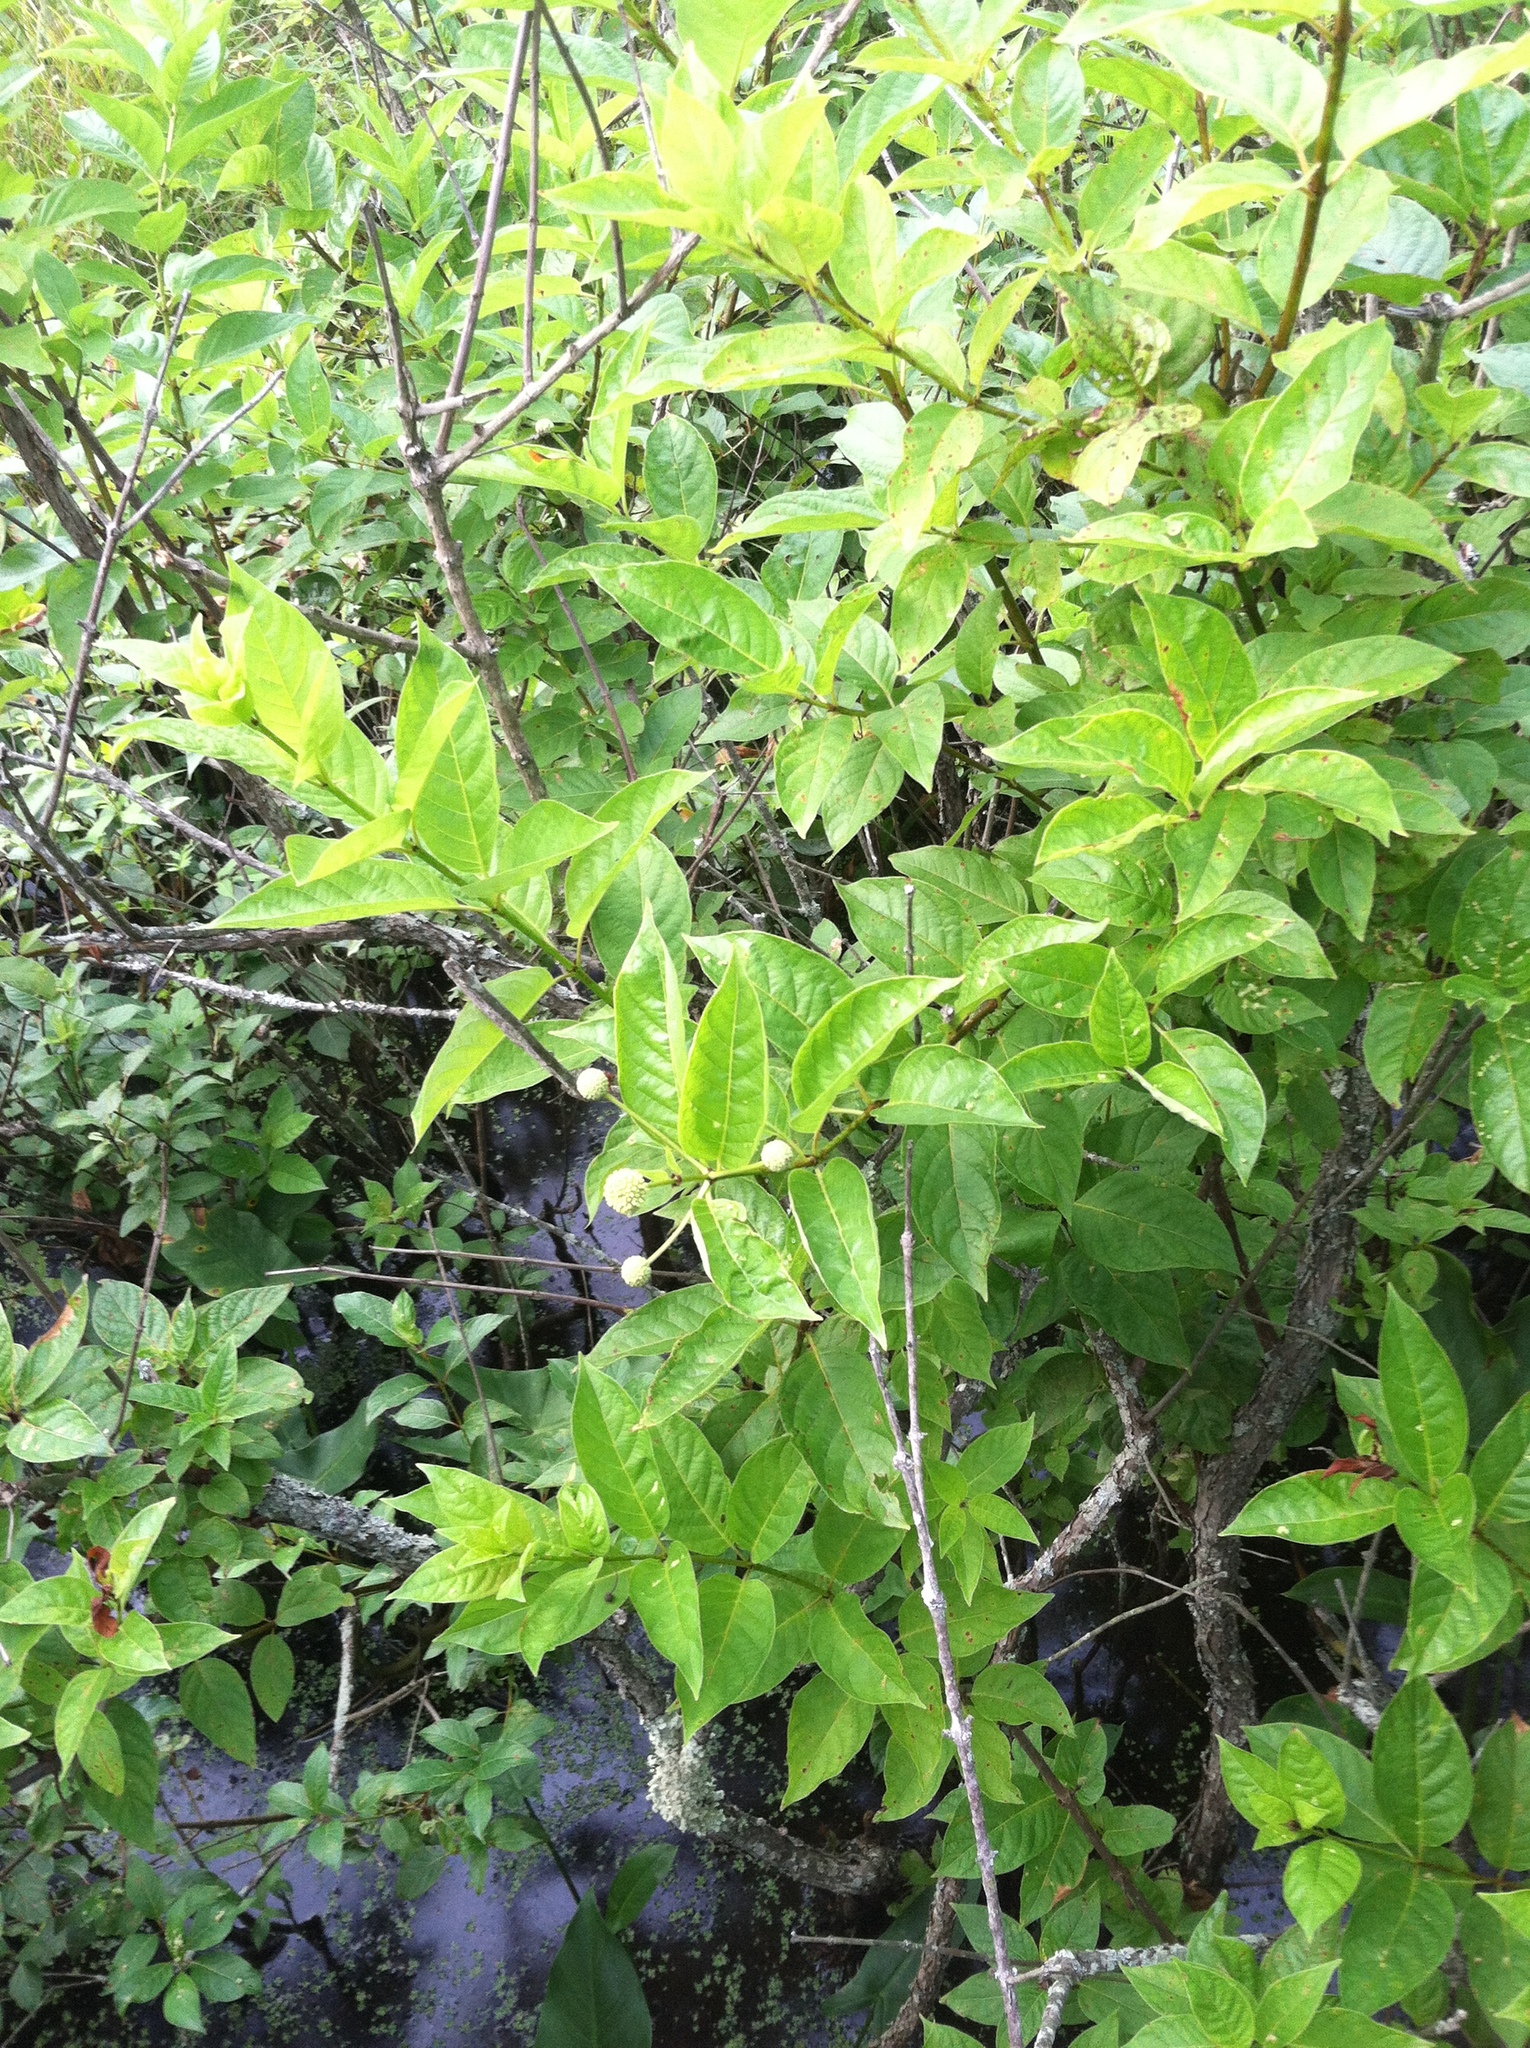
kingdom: Plantae
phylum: Tracheophyta
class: Magnoliopsida
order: Gentianales
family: Rubiaceae
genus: Cephalanthus
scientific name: Cephalanthus occidentalis
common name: Button-willow
